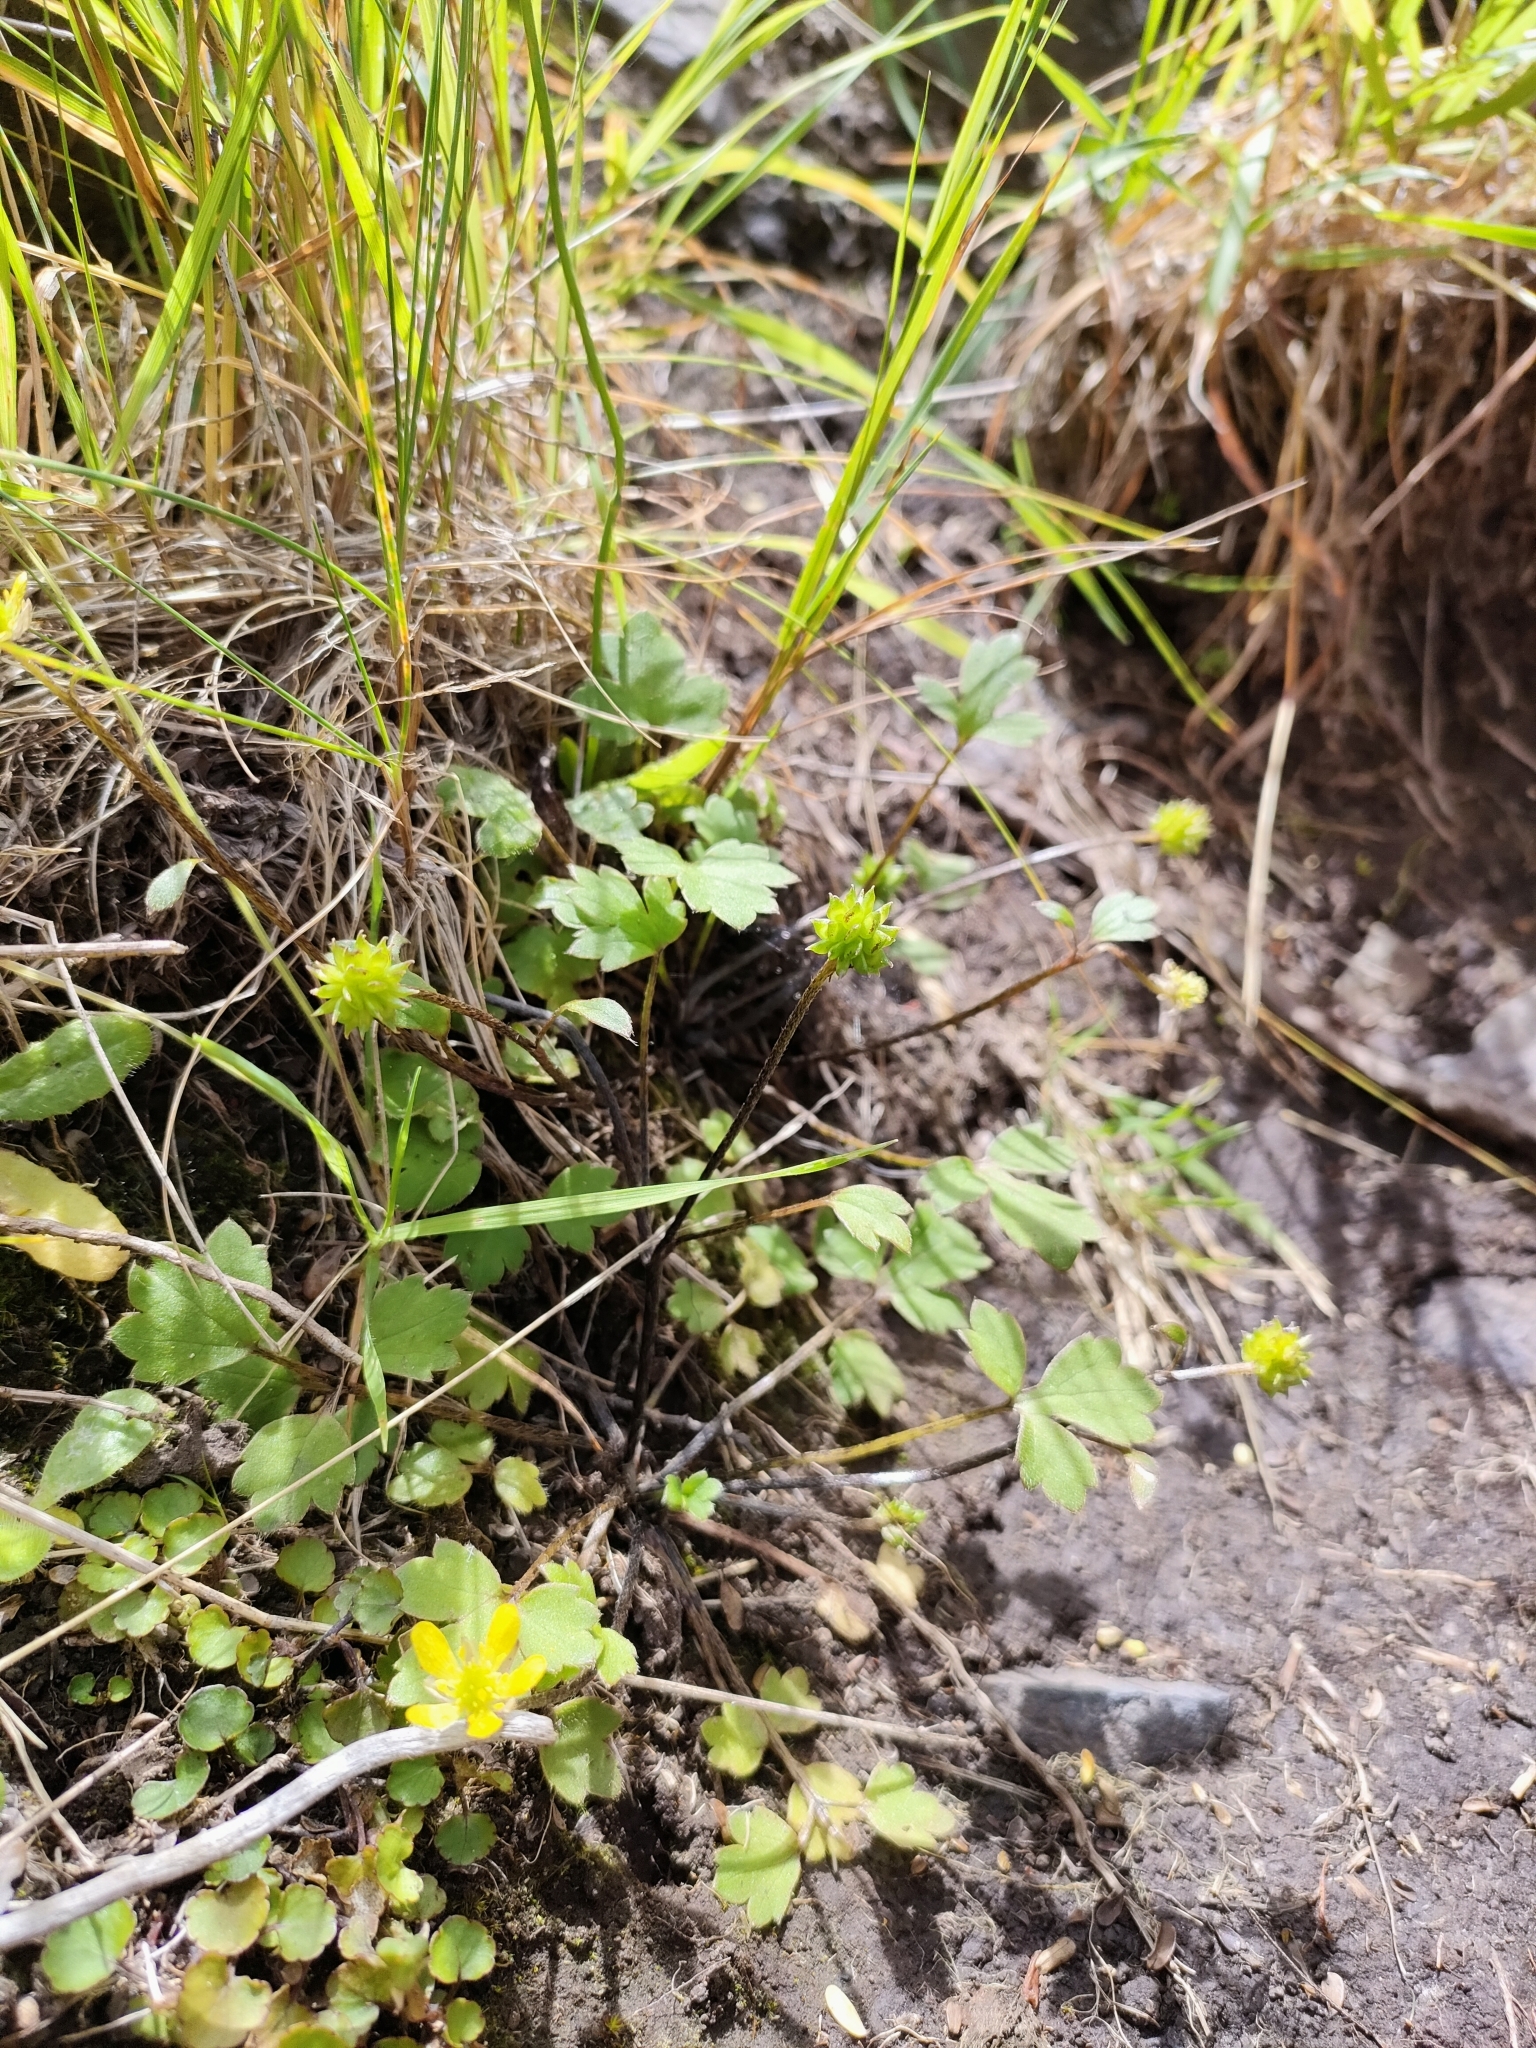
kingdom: Plantae
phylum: Tracheophyta
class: Magnoliopsida
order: Ranunculales
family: Ranunculaceae
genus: Ranunculus
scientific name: Ranunculus reflexus
